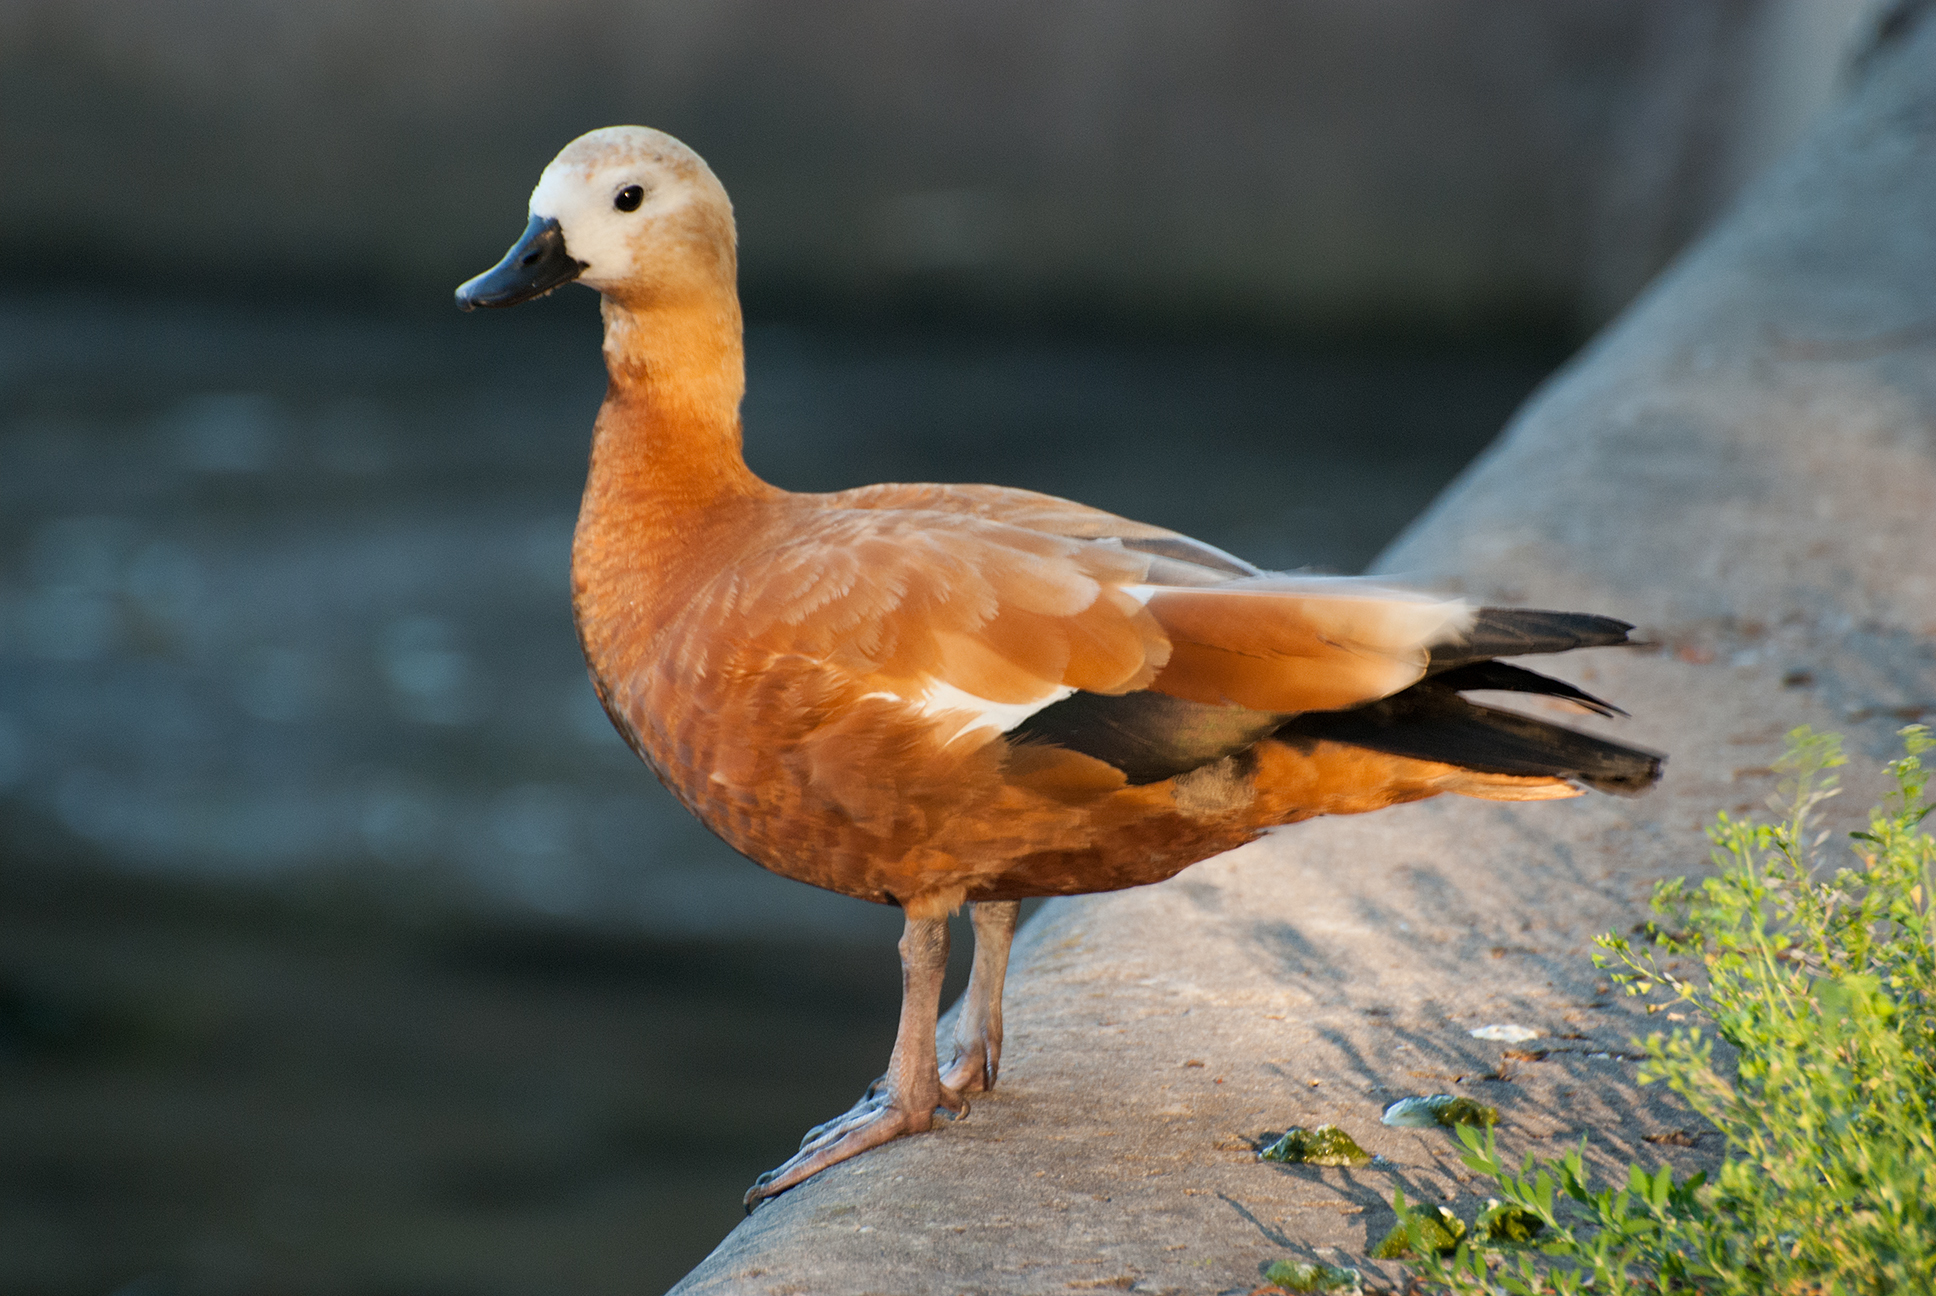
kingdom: Animalia
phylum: Chordata
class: Aves
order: Anseriformes
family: Anatidae
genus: Tadorna
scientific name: Tadorna ferruginea
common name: Ruddy shelduck
